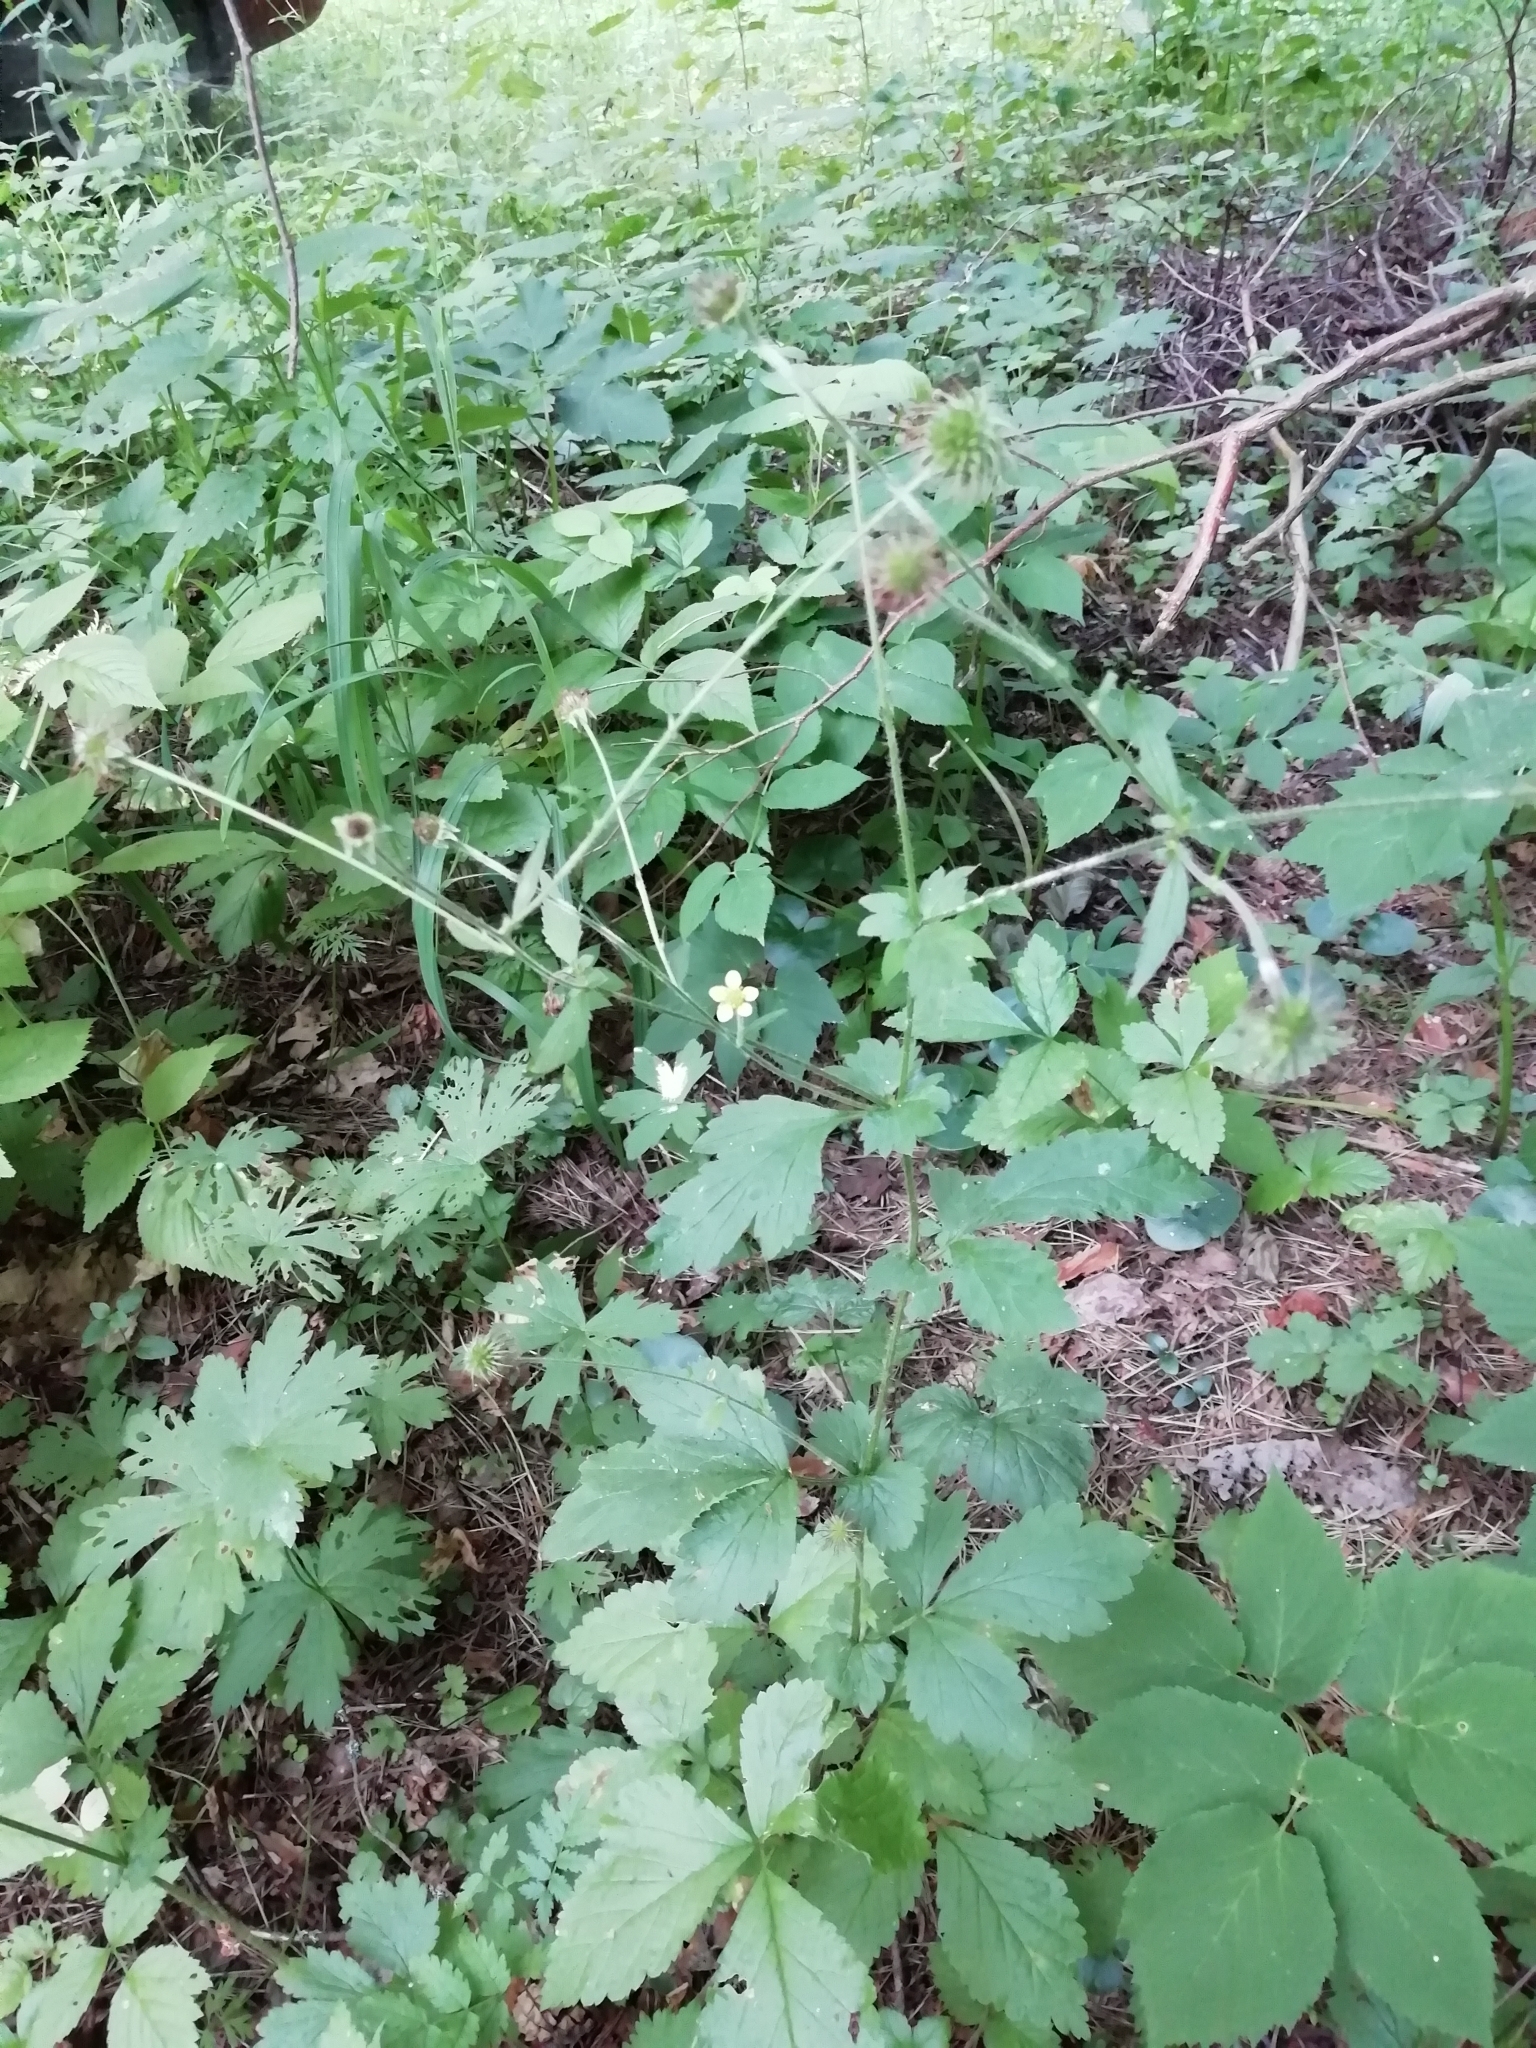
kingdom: Plantae
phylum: Tracheophyta
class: Magnoliopsida
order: Rosales
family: Rosaceae
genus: Geum
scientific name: Geum urbanum
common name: Wood avens
